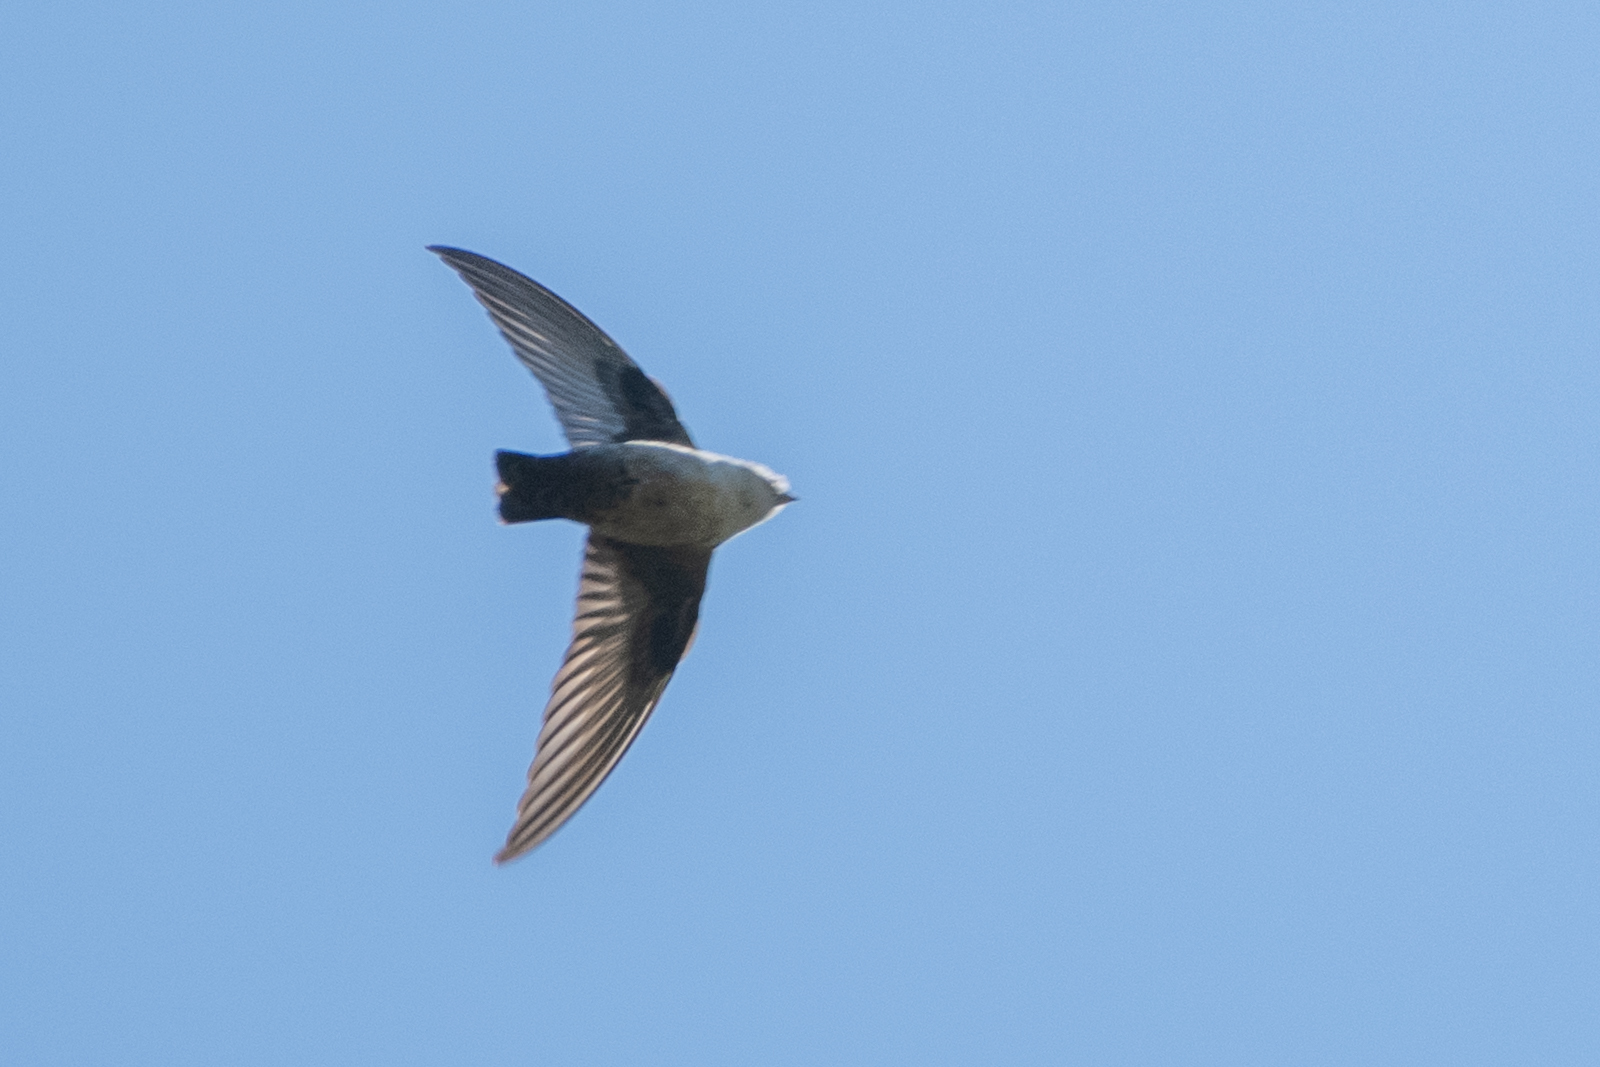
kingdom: Animalia
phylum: Chordata
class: Aves
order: Passeriformes
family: Hirundinidae
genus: Ptyonoprogne
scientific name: Ptyonoprogne rupestris
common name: Eurasian crag martin
